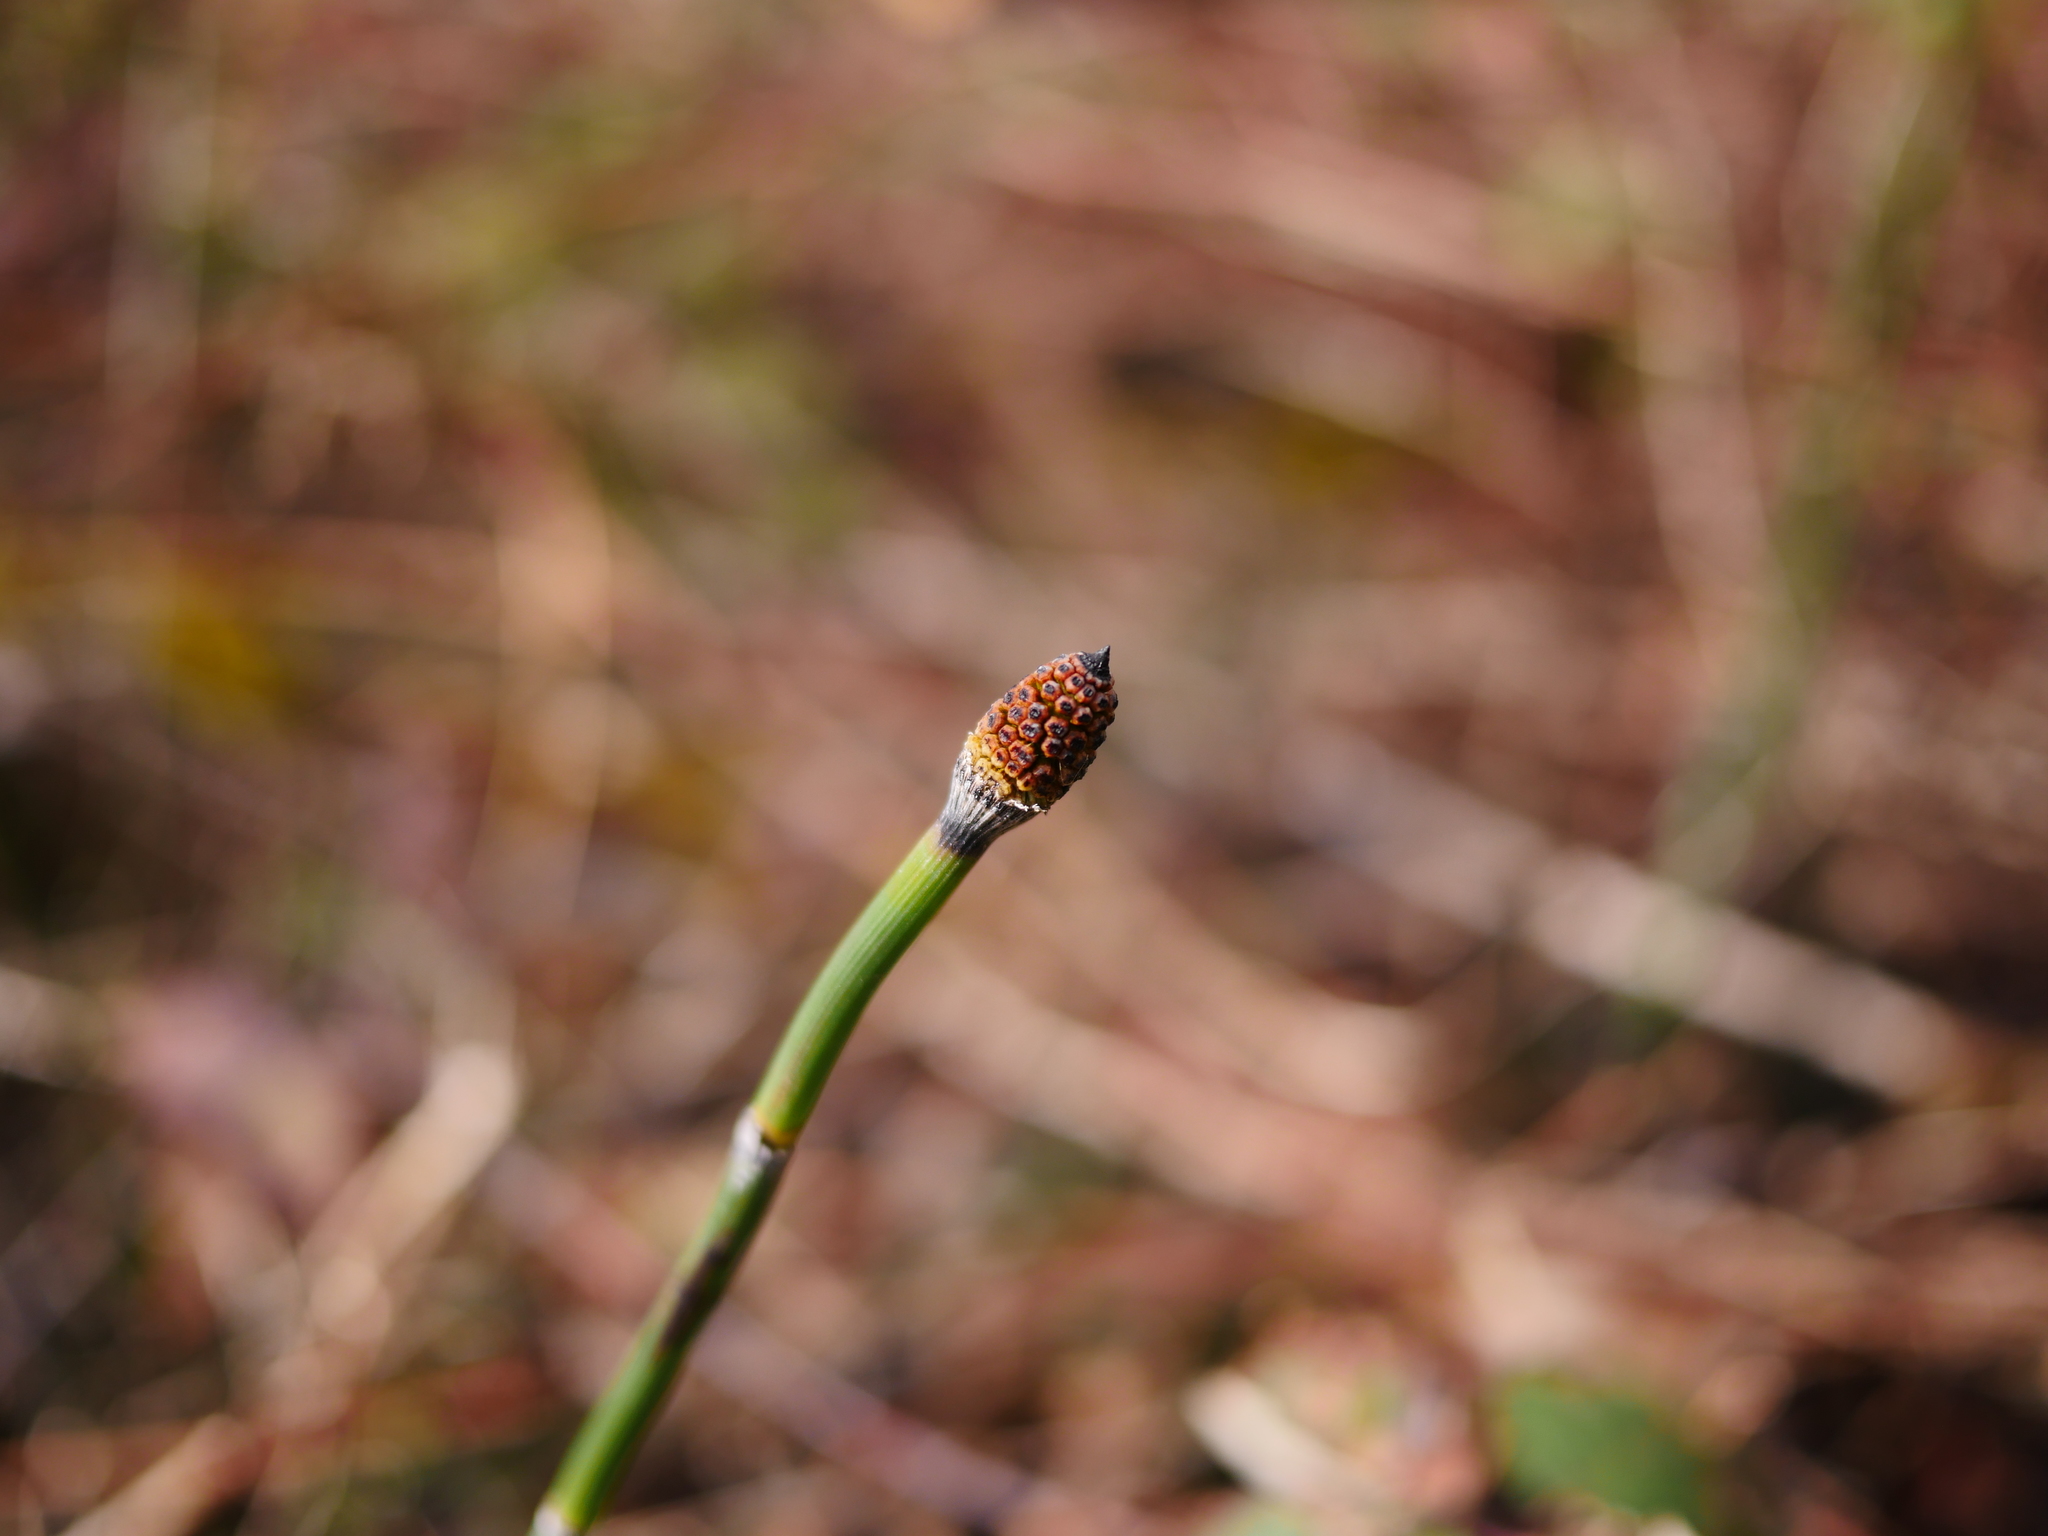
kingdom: Plantae
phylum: Tracheophyta
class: Polypodiopsida
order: Equisetales
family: Equisetaceae
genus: Equisetum
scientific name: Equisetum hyemale
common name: Rough horsetail
